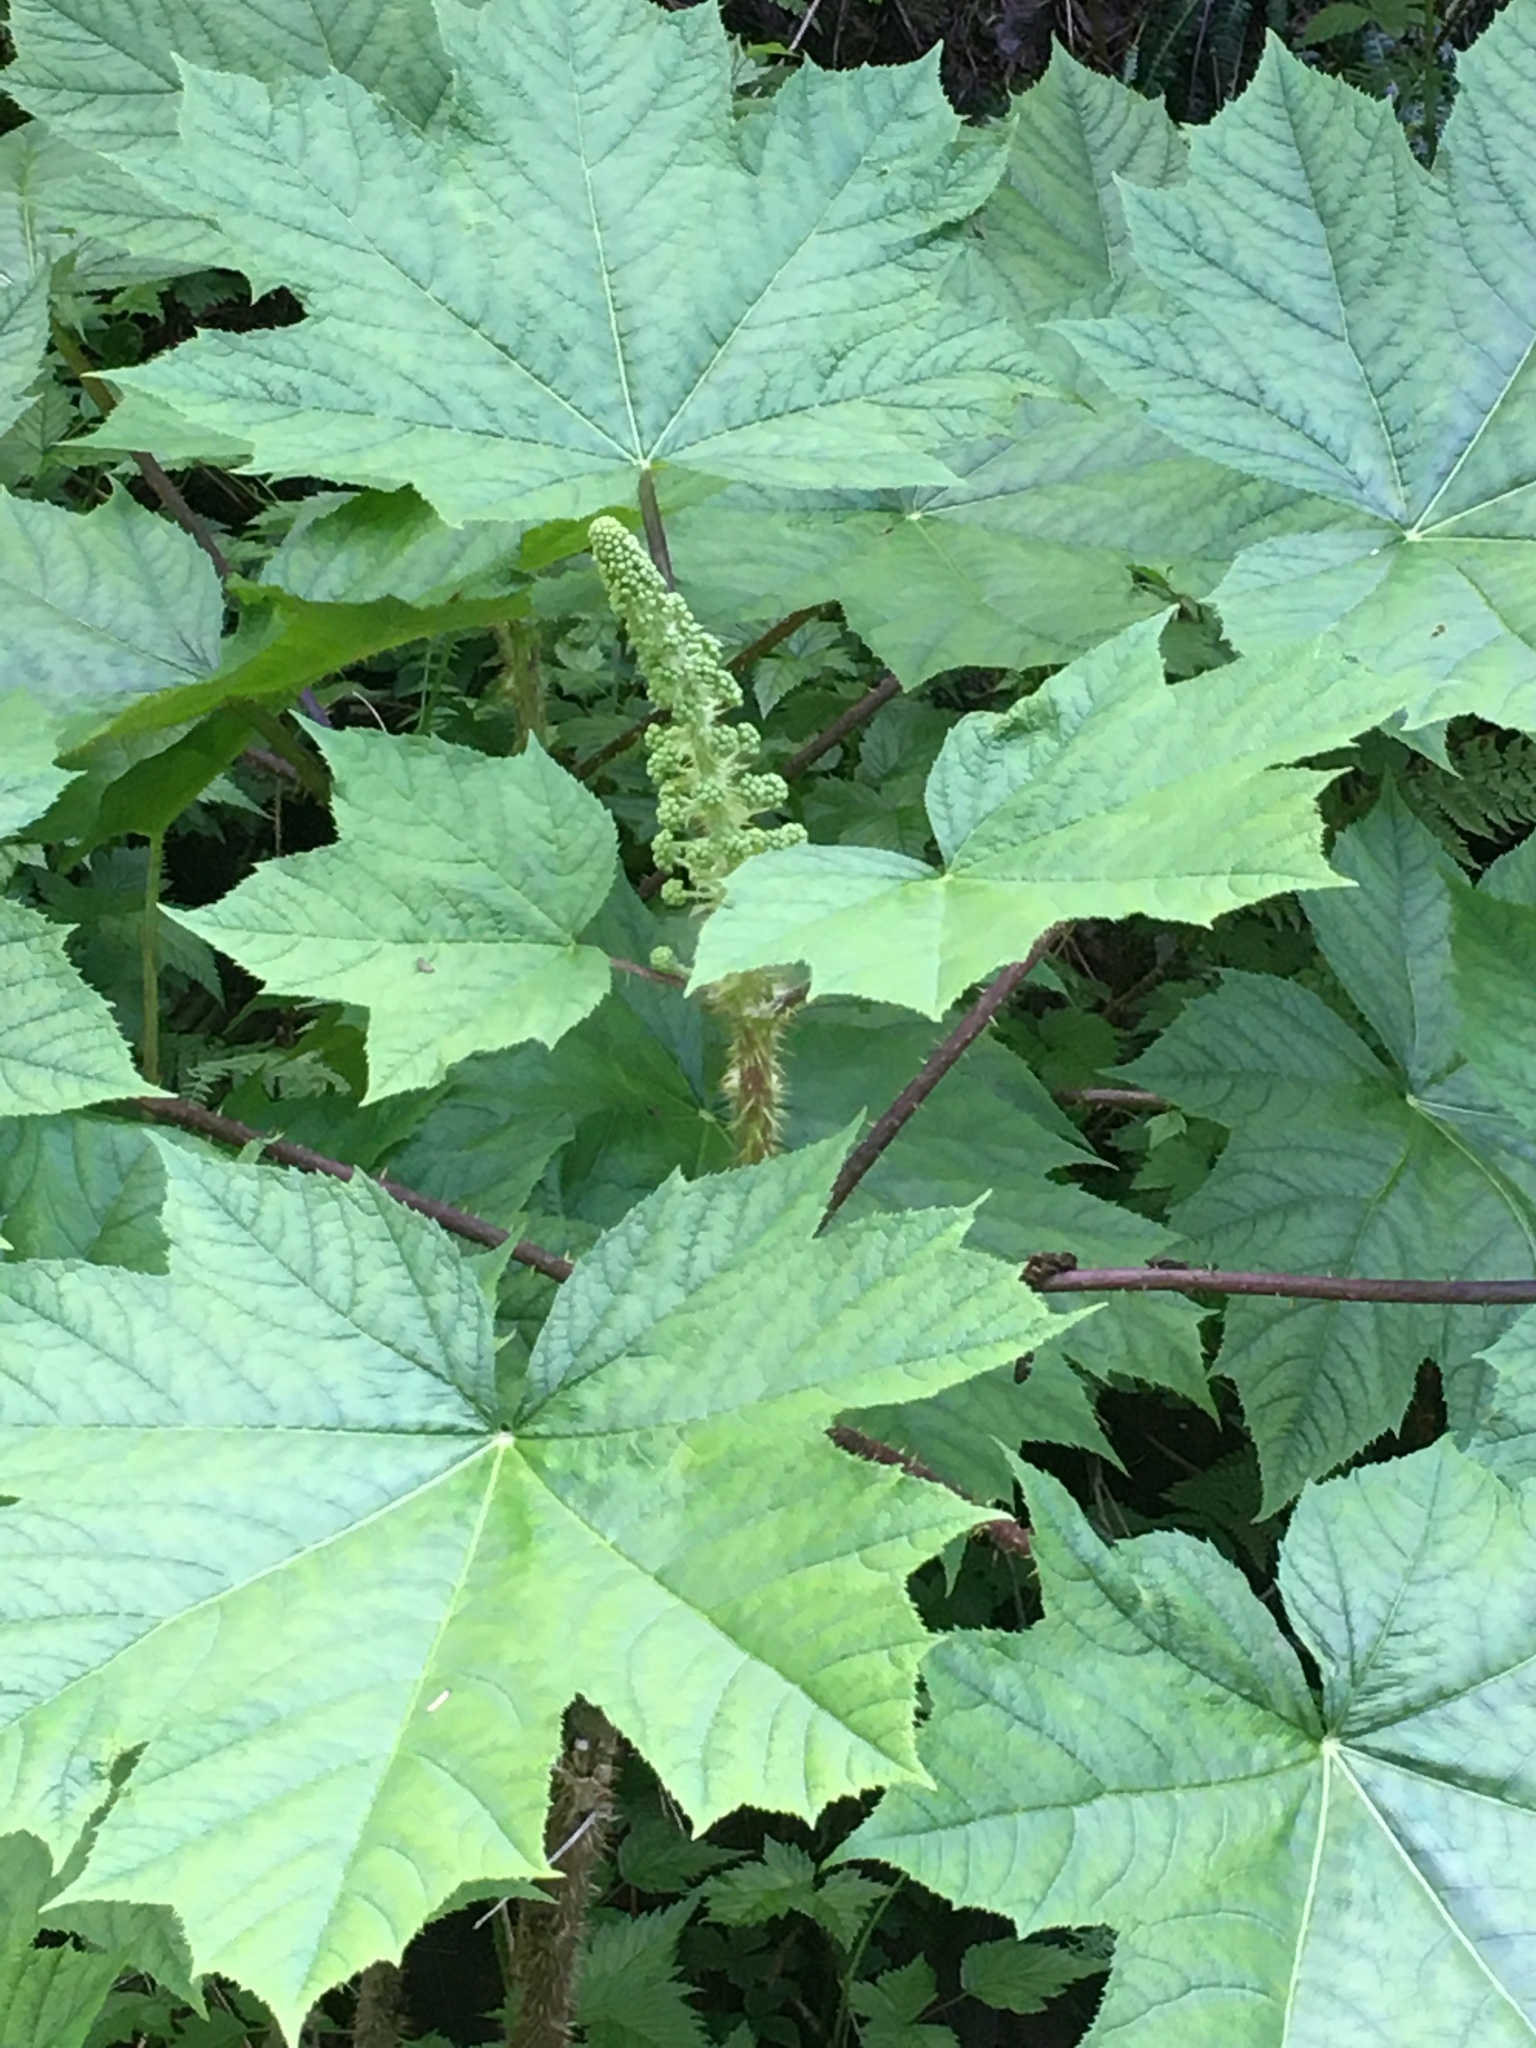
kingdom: Plantae
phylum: Tracheophyta
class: Magnoliopsida
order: Apiales
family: Araliaceae
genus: Oplopanax
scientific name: Oplopanax horridus
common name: Devil's walking-stick
